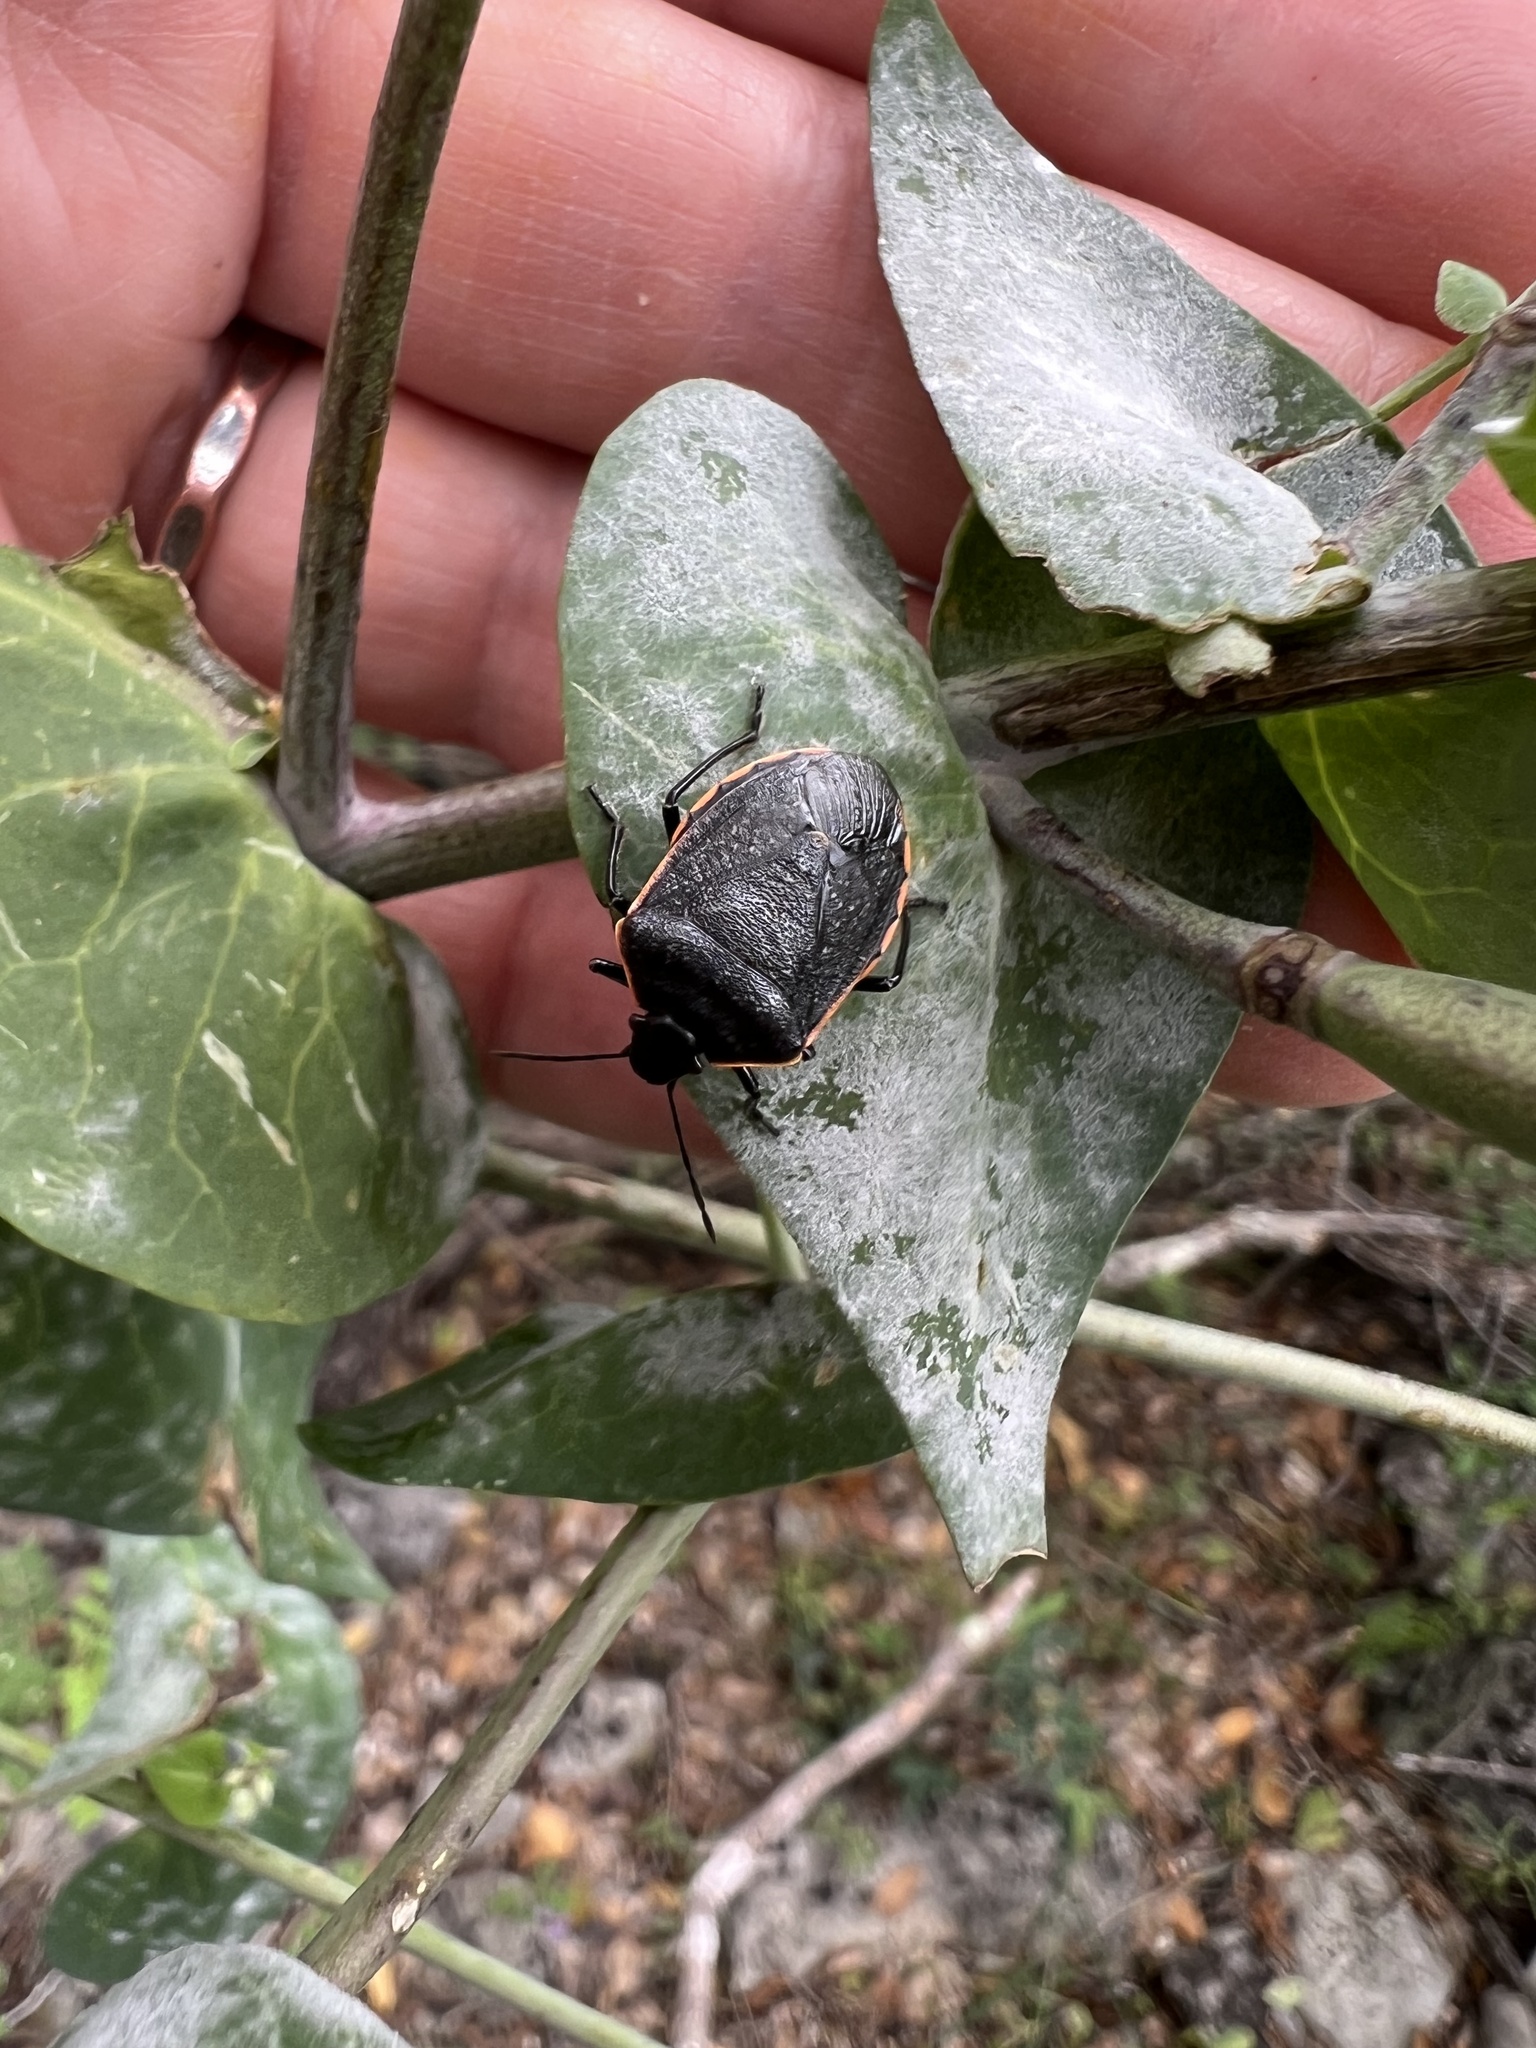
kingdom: Animalia
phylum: Arthropoda
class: Insecta
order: Hemiptera
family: Pentatomidae
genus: Chlorochroa
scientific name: Chlorochroa ligata
